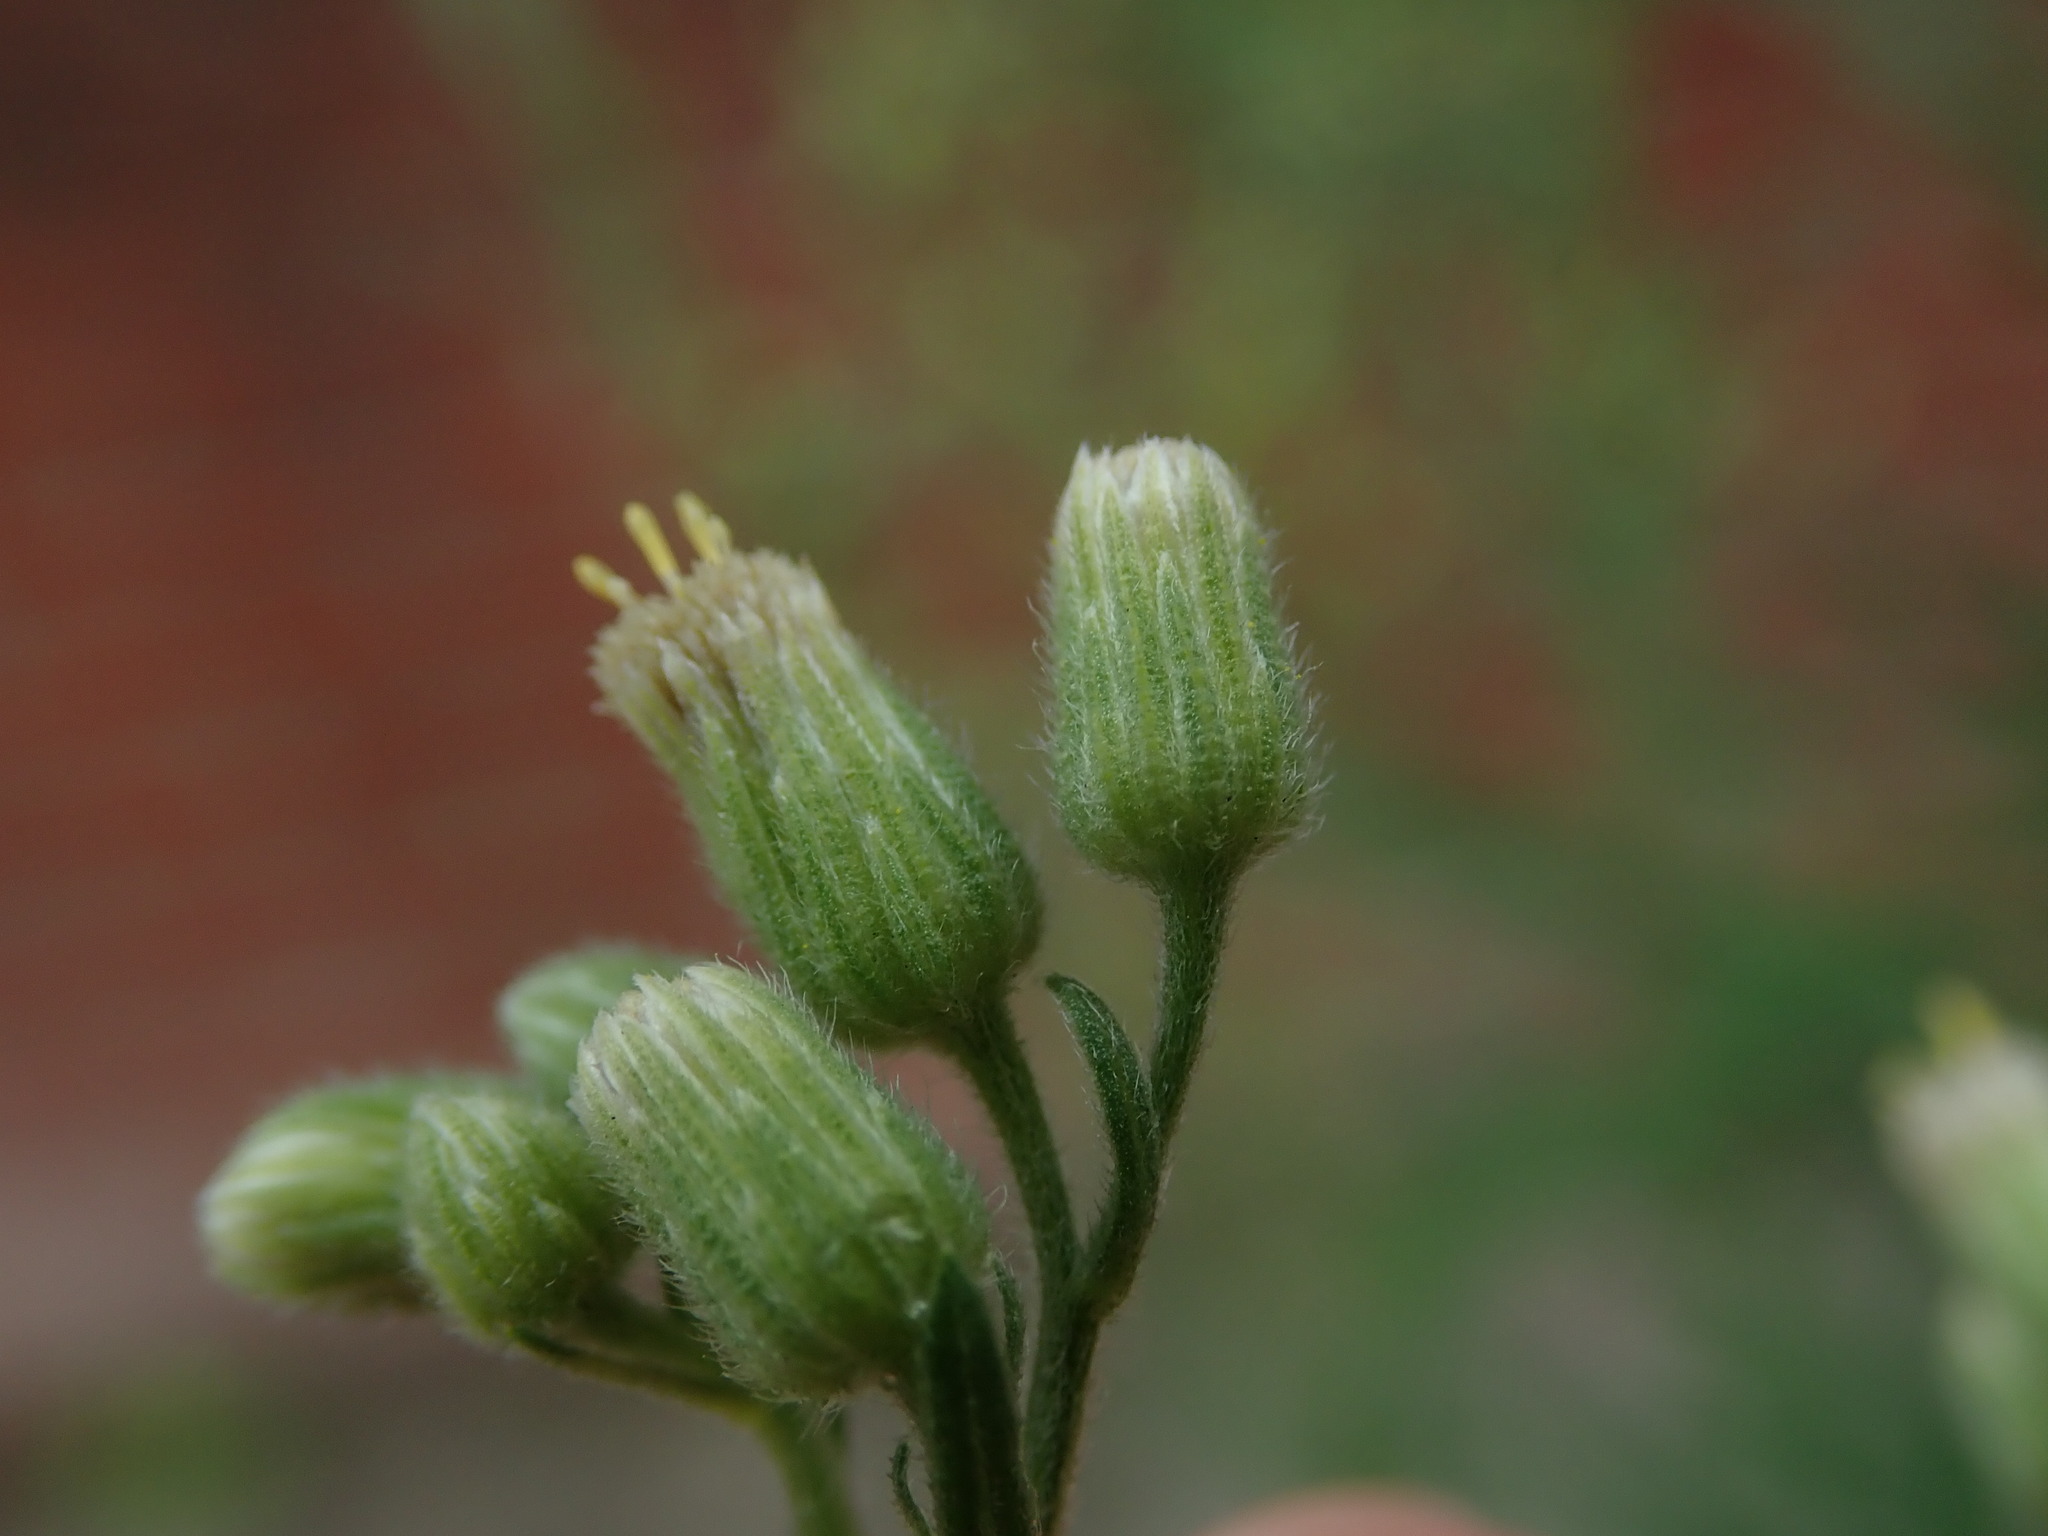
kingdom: Plantae
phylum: Tracheophyta
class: Magnoliopsida
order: Asterales
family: Asteraceae
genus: Erigeron
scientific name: Erigeron sumatrensis
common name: Daisy
